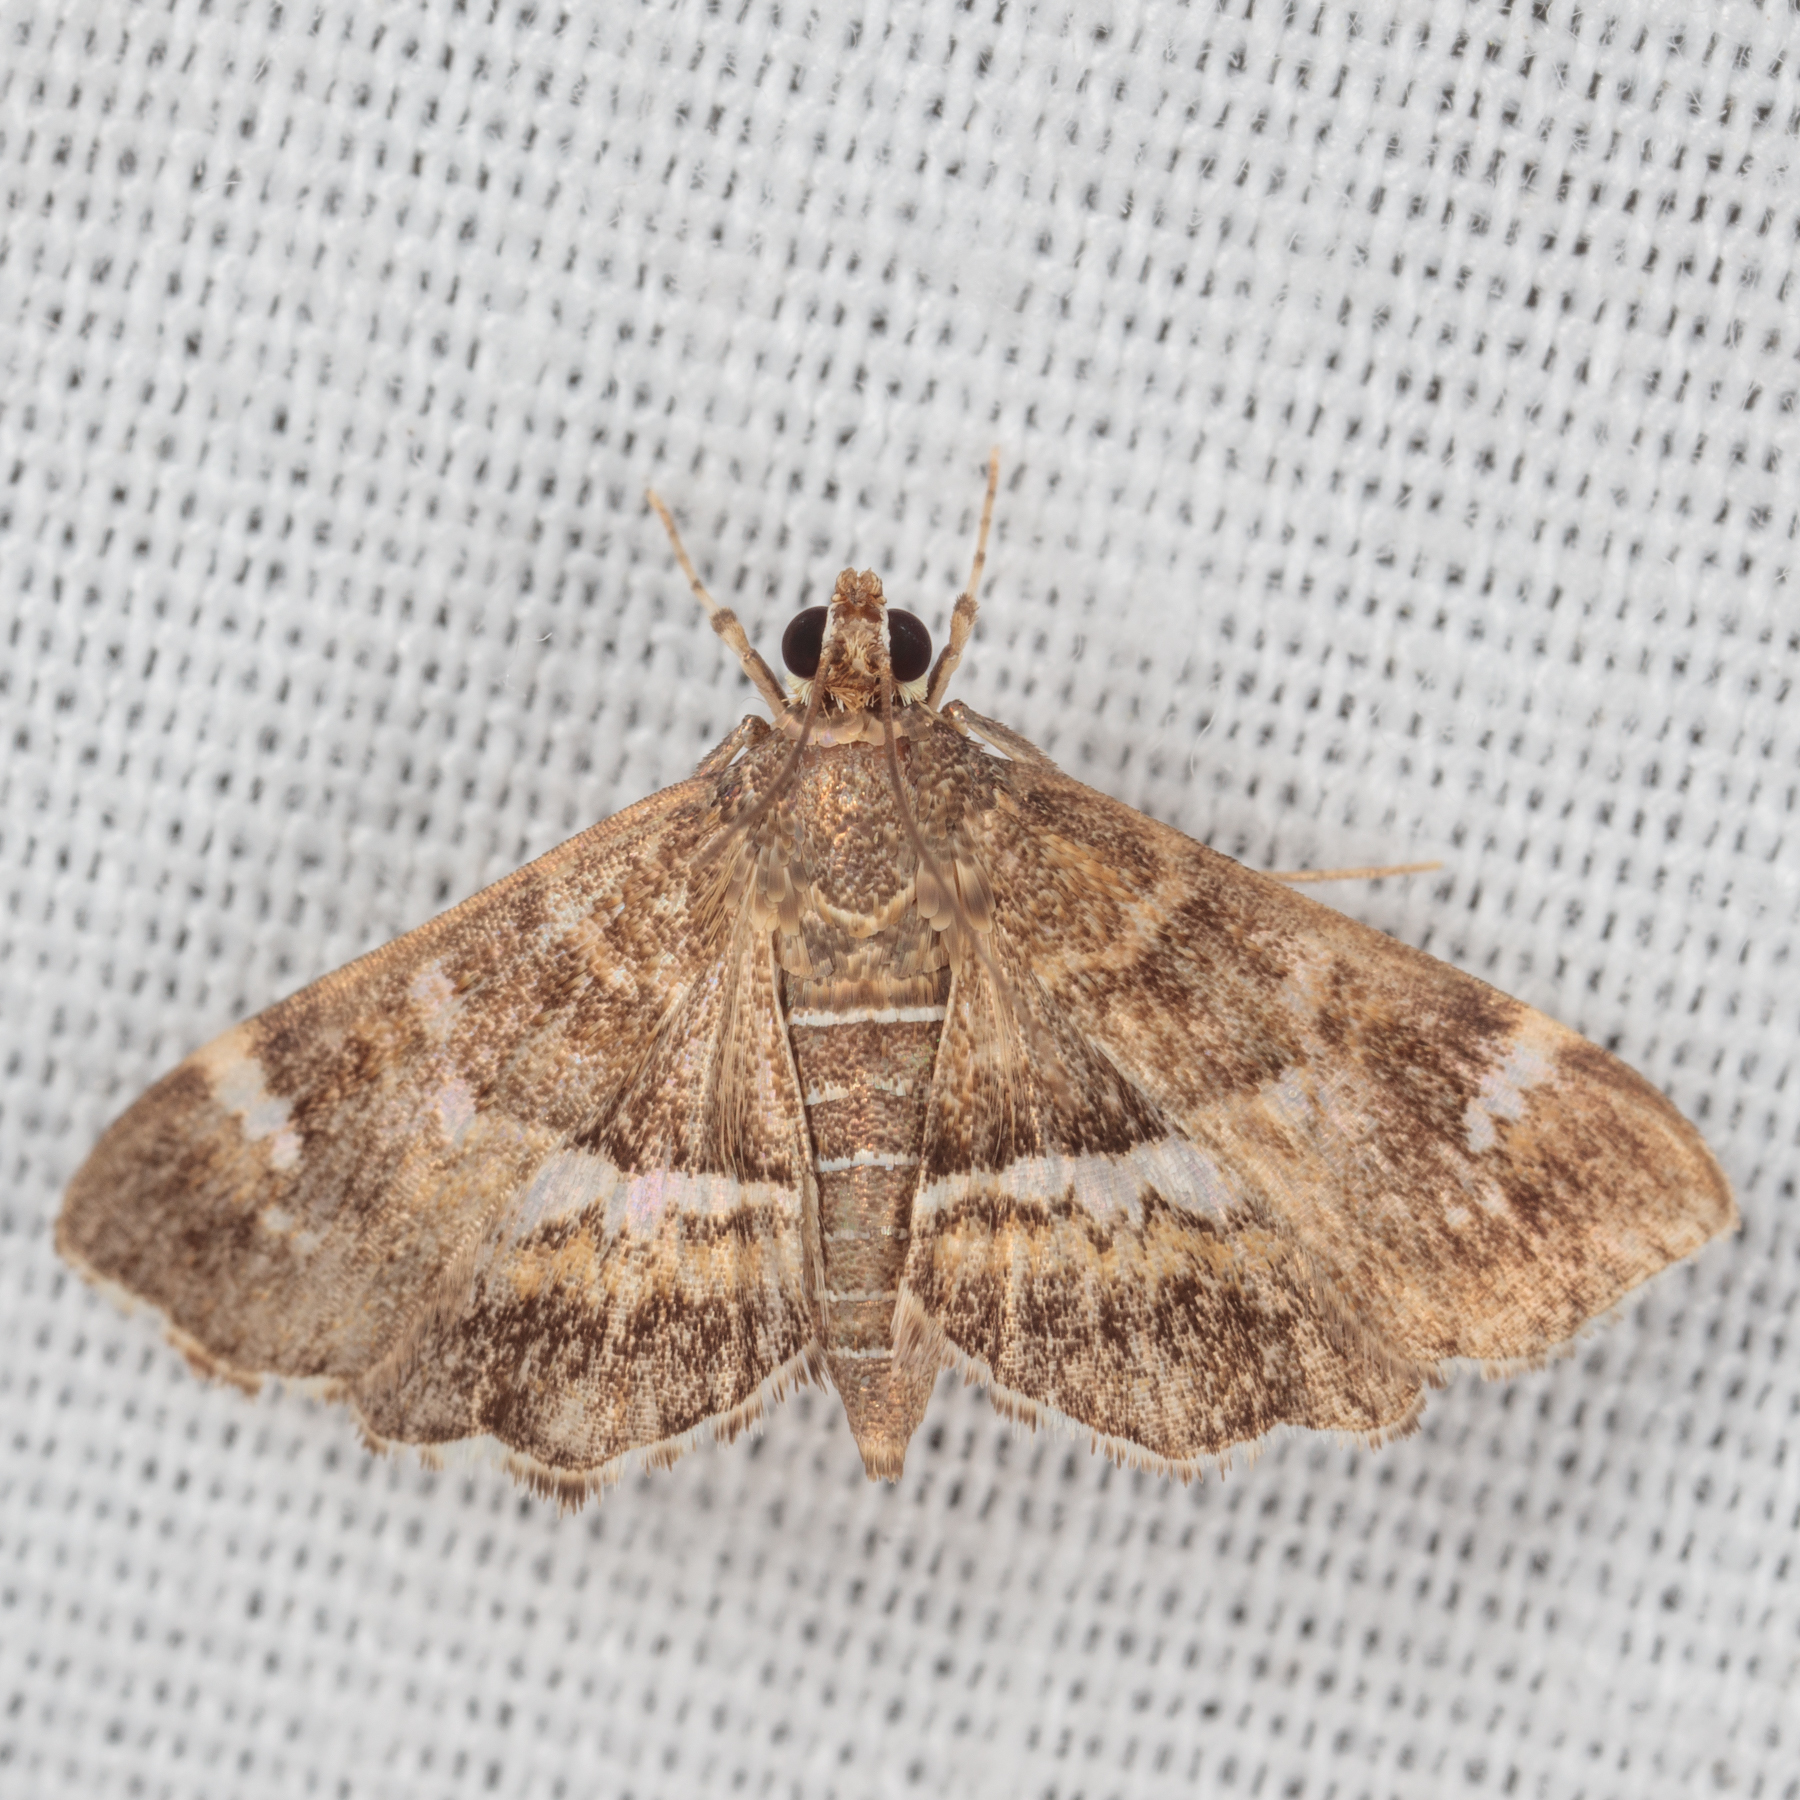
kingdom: Animalia
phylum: Arthropoda
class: Insecta
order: Lepidoptera
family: Crambidae
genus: Hymenia
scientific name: Hymenia perspectalis
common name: Spotted beet webworm
